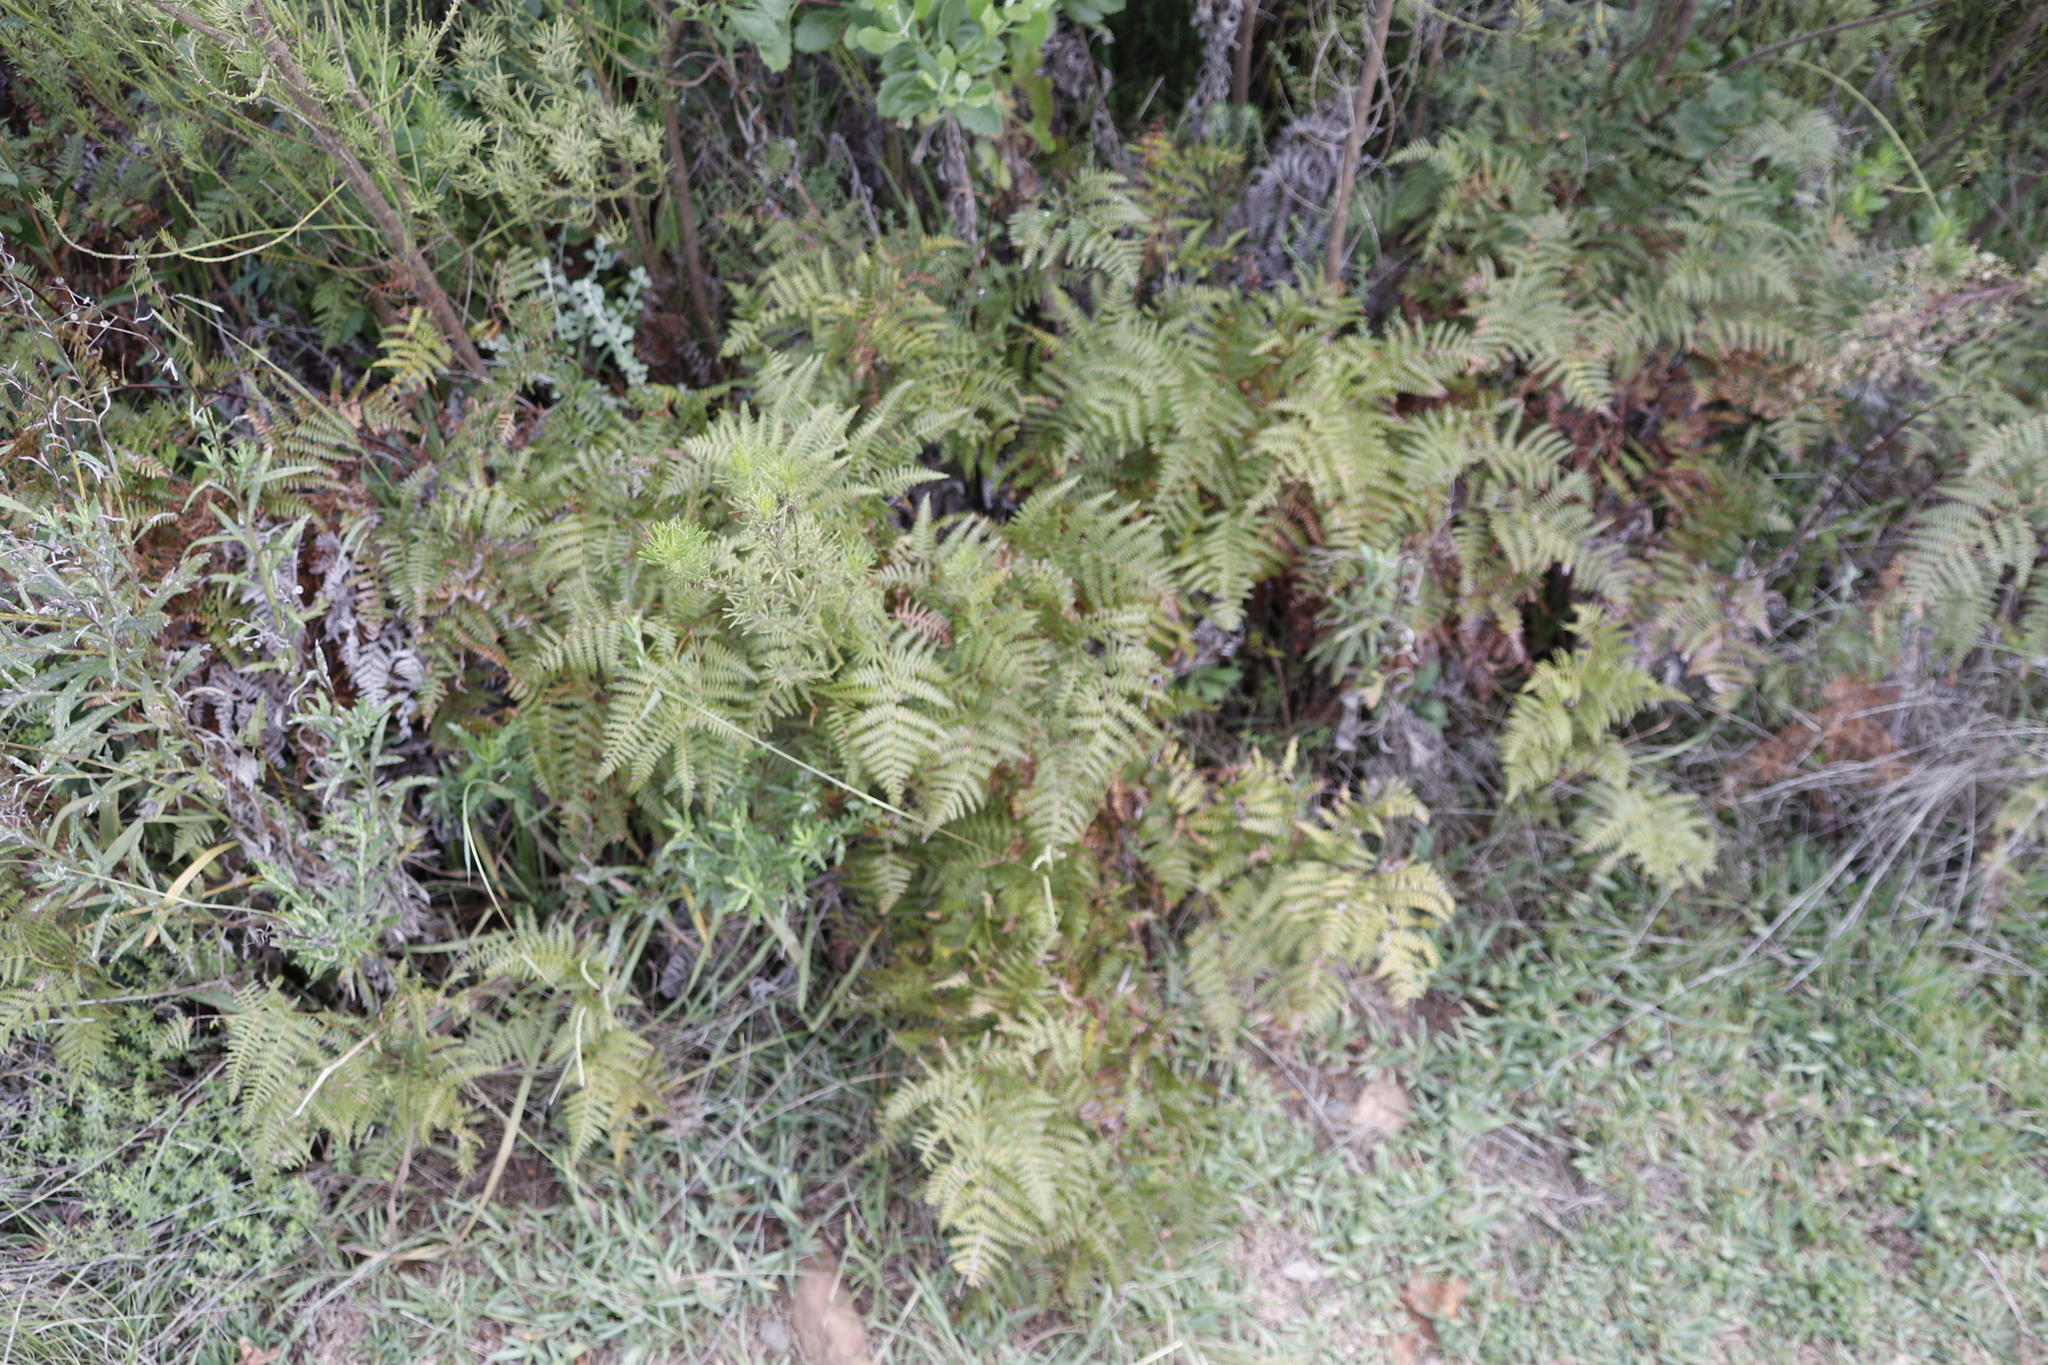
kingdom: Plantae
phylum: Tracheophyta
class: Polypodiopsida
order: Polypodiales
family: Dennstaedtiaceae
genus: Pteridium
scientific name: Pteridium aquilinum
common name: Bracken
